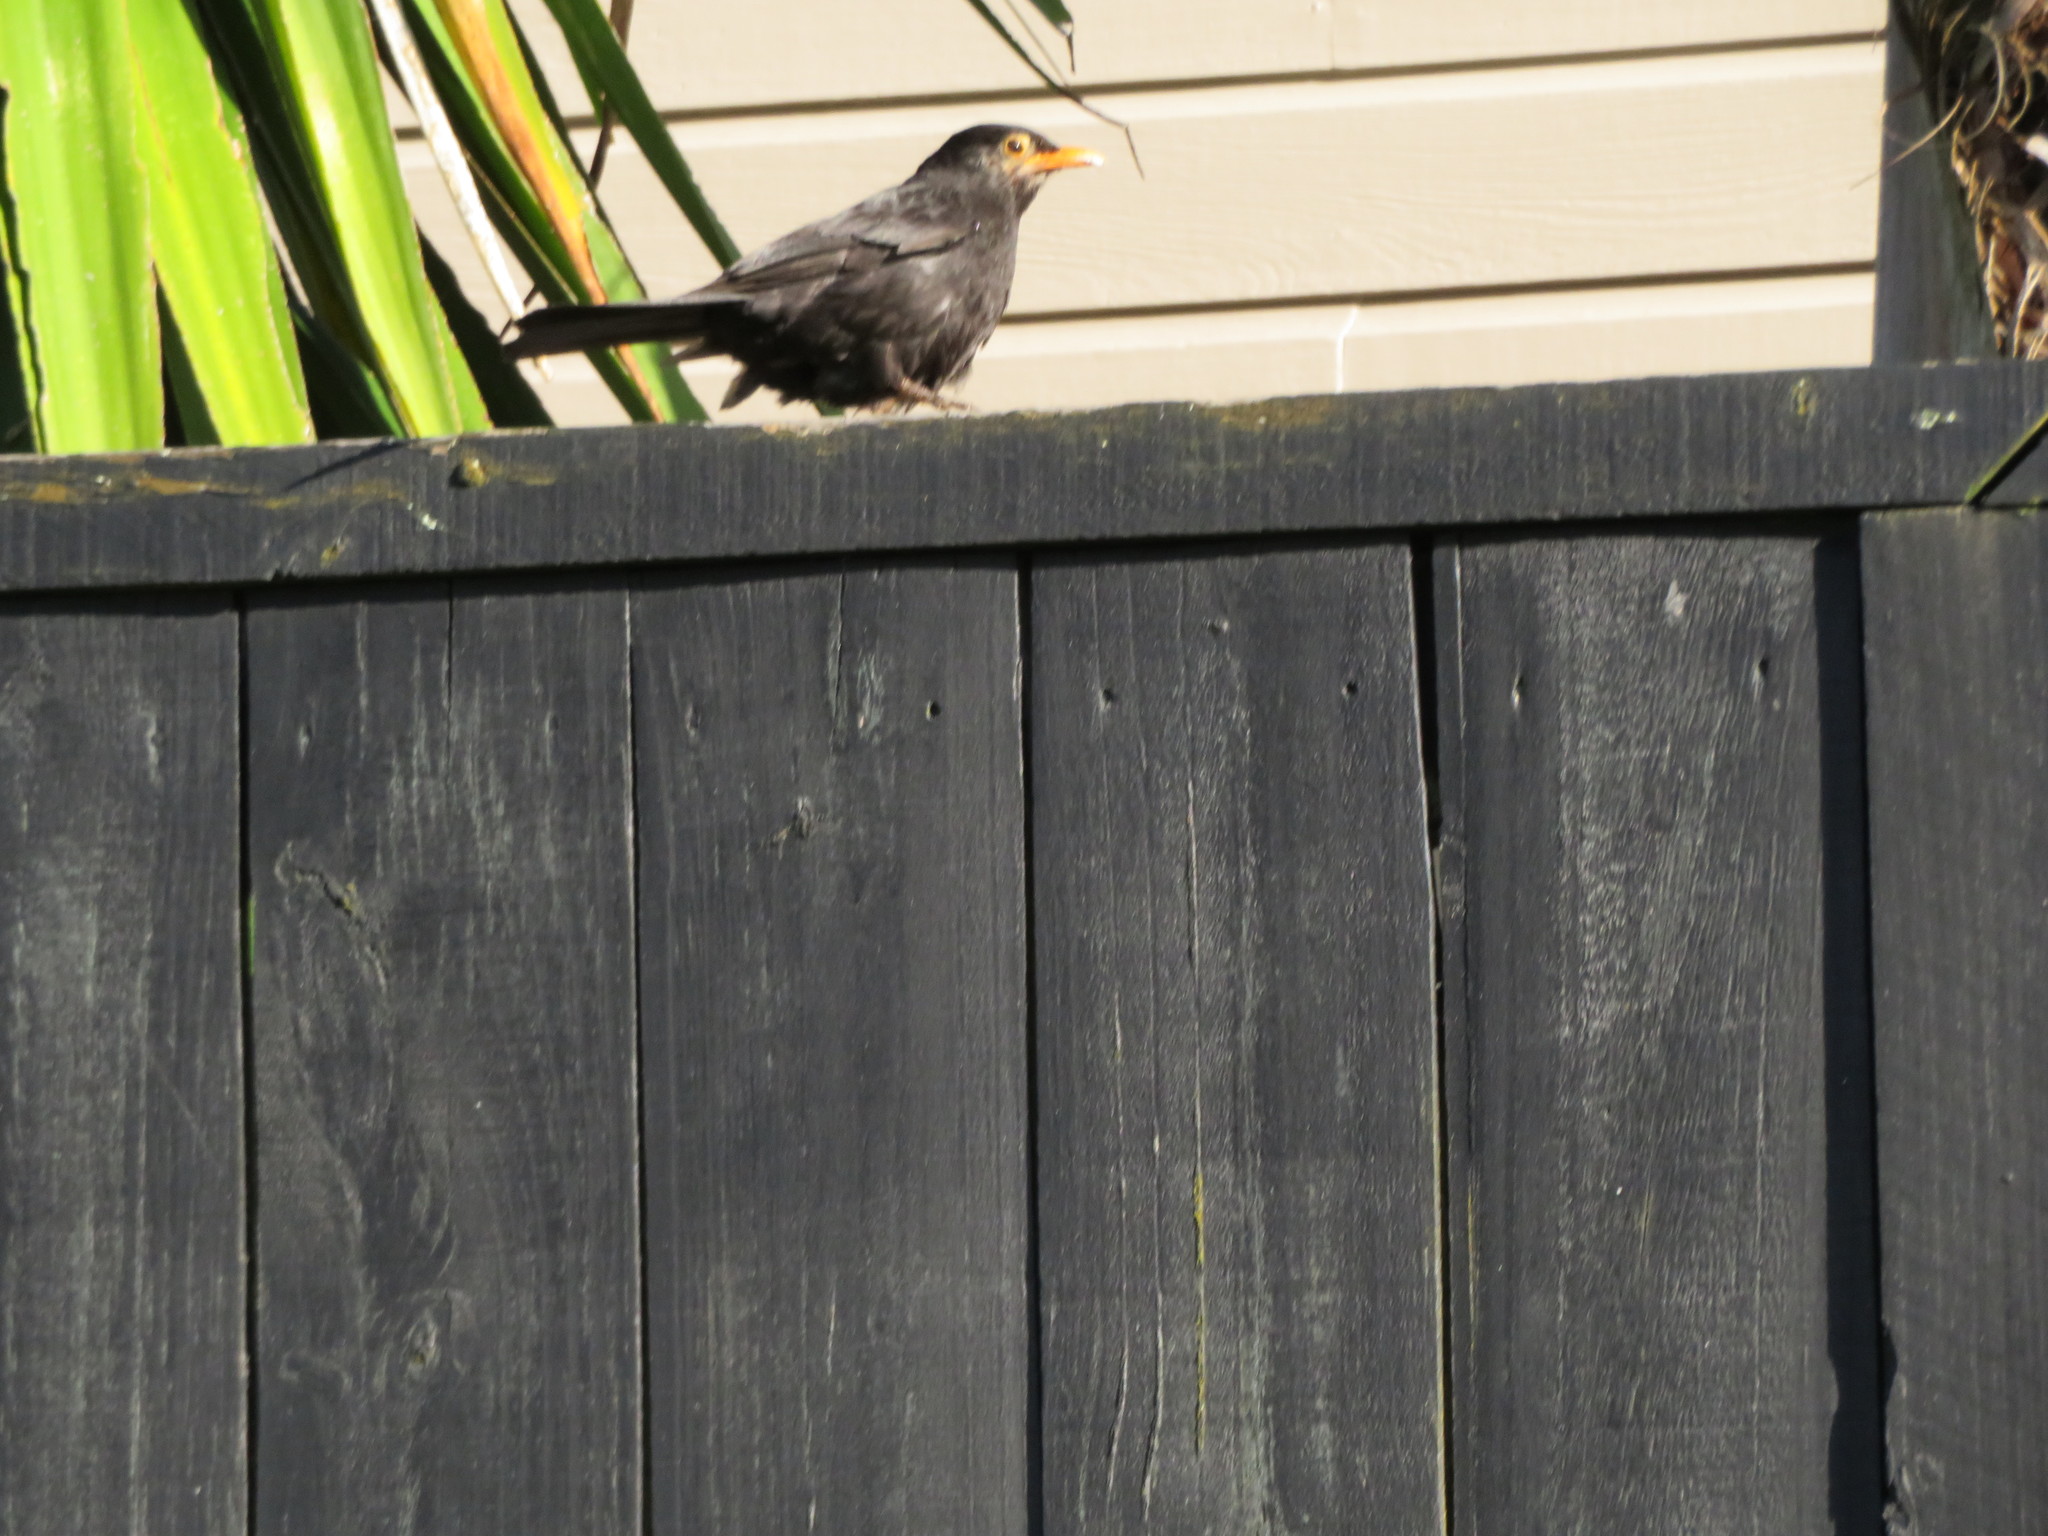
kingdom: Animalia
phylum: Chordata
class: Aves
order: Passeriformes
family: Turdidae
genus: Turdus
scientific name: Turdus merula
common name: Common blackbird
